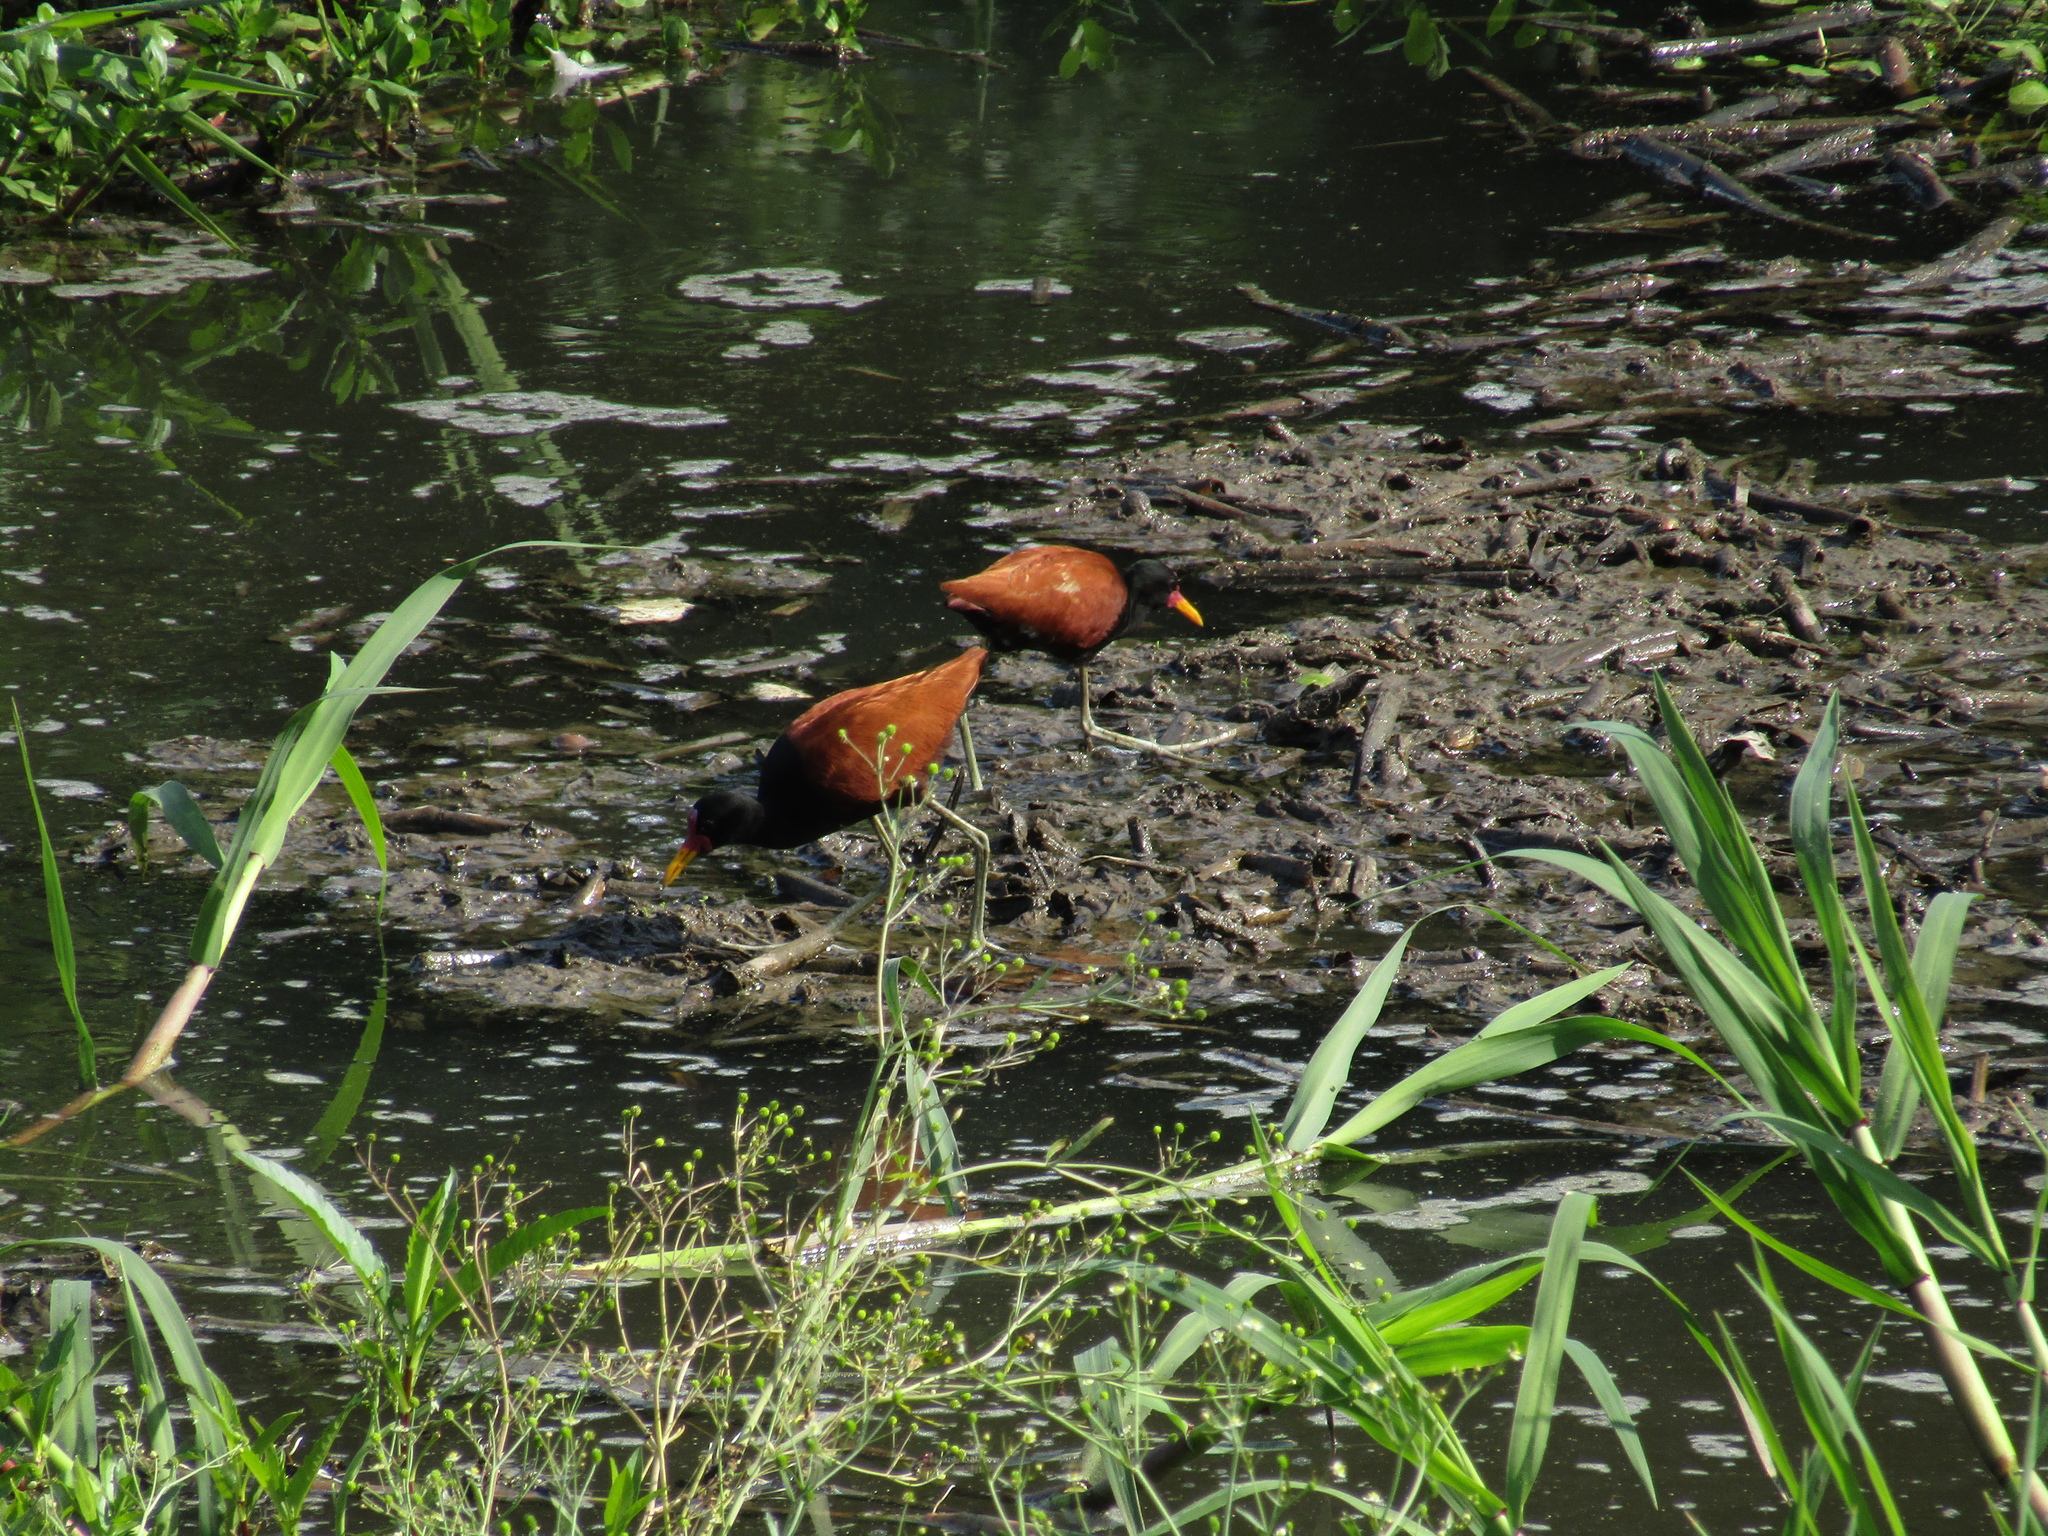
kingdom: Animalia
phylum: Chordata
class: Aves
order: Charadriiformes
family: Jacanidae
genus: Jacana
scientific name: Jacana jacana
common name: Wattled jacana
